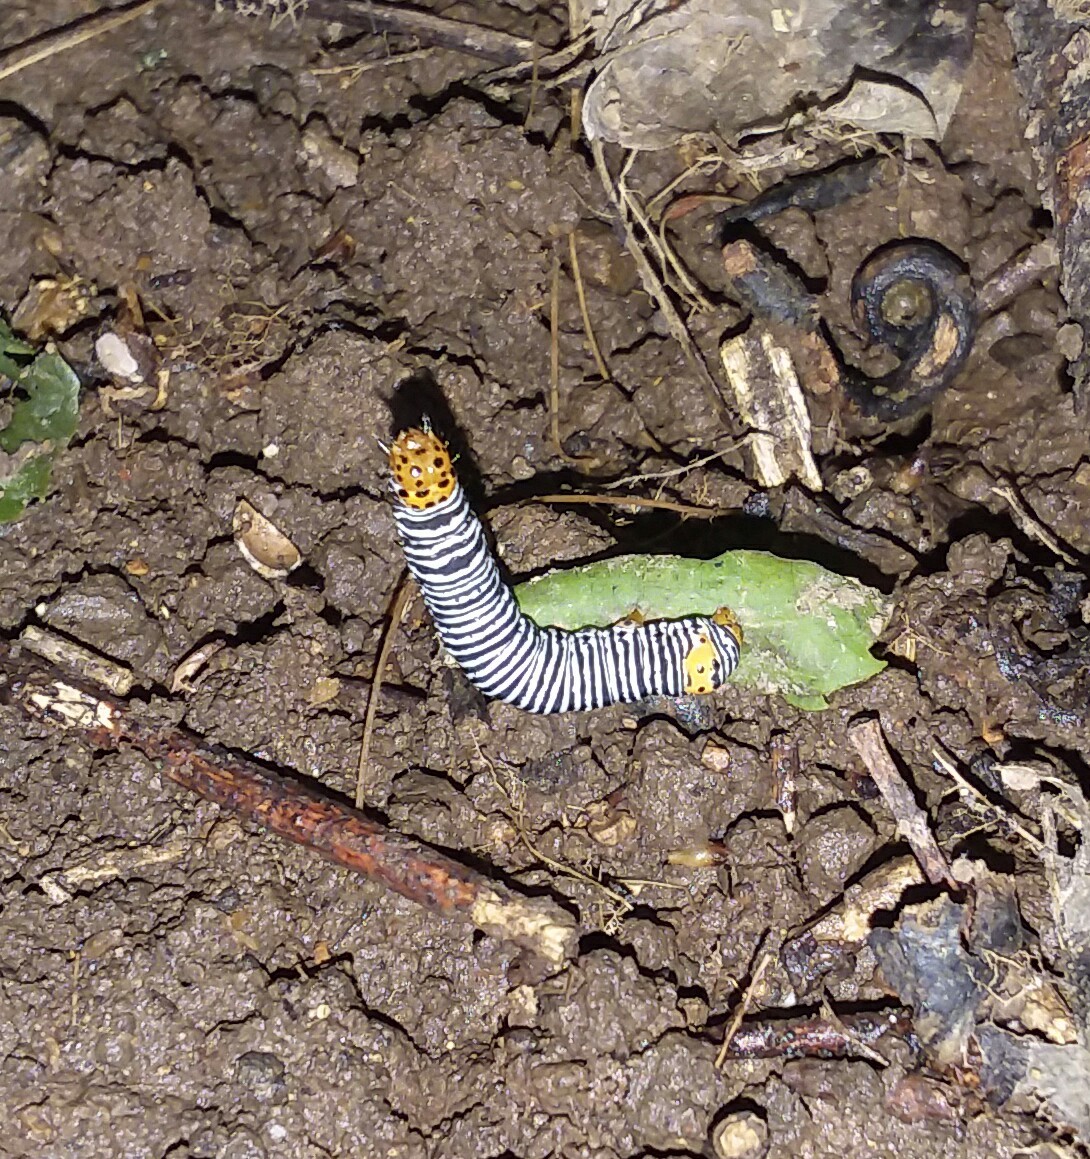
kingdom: Animalia
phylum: Arthropoda
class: Insecta
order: Lepidoptera
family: Noctuidae
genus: Psychomorpha
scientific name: Psychomorpha epimenis
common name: Grapevine epimenis moth
